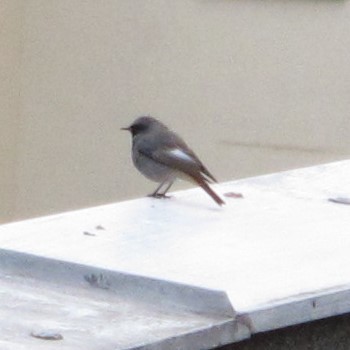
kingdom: Animalia
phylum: Chordata
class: Aves
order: Passeriformes
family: Muscicapidae
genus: Phoenicurus
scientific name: Phoenicurus ochruros
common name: Black redstart
